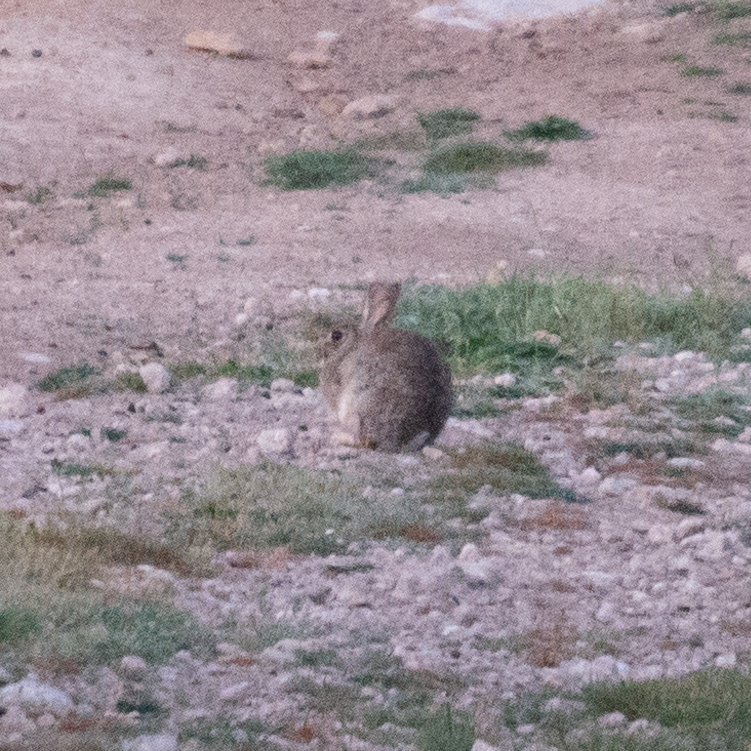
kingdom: Animalia
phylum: Chordata
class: Mammalia
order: Lagomorpha
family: Leporidae
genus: Oryctolagus
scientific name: Oryctolagus cuniculus
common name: European rabbit
